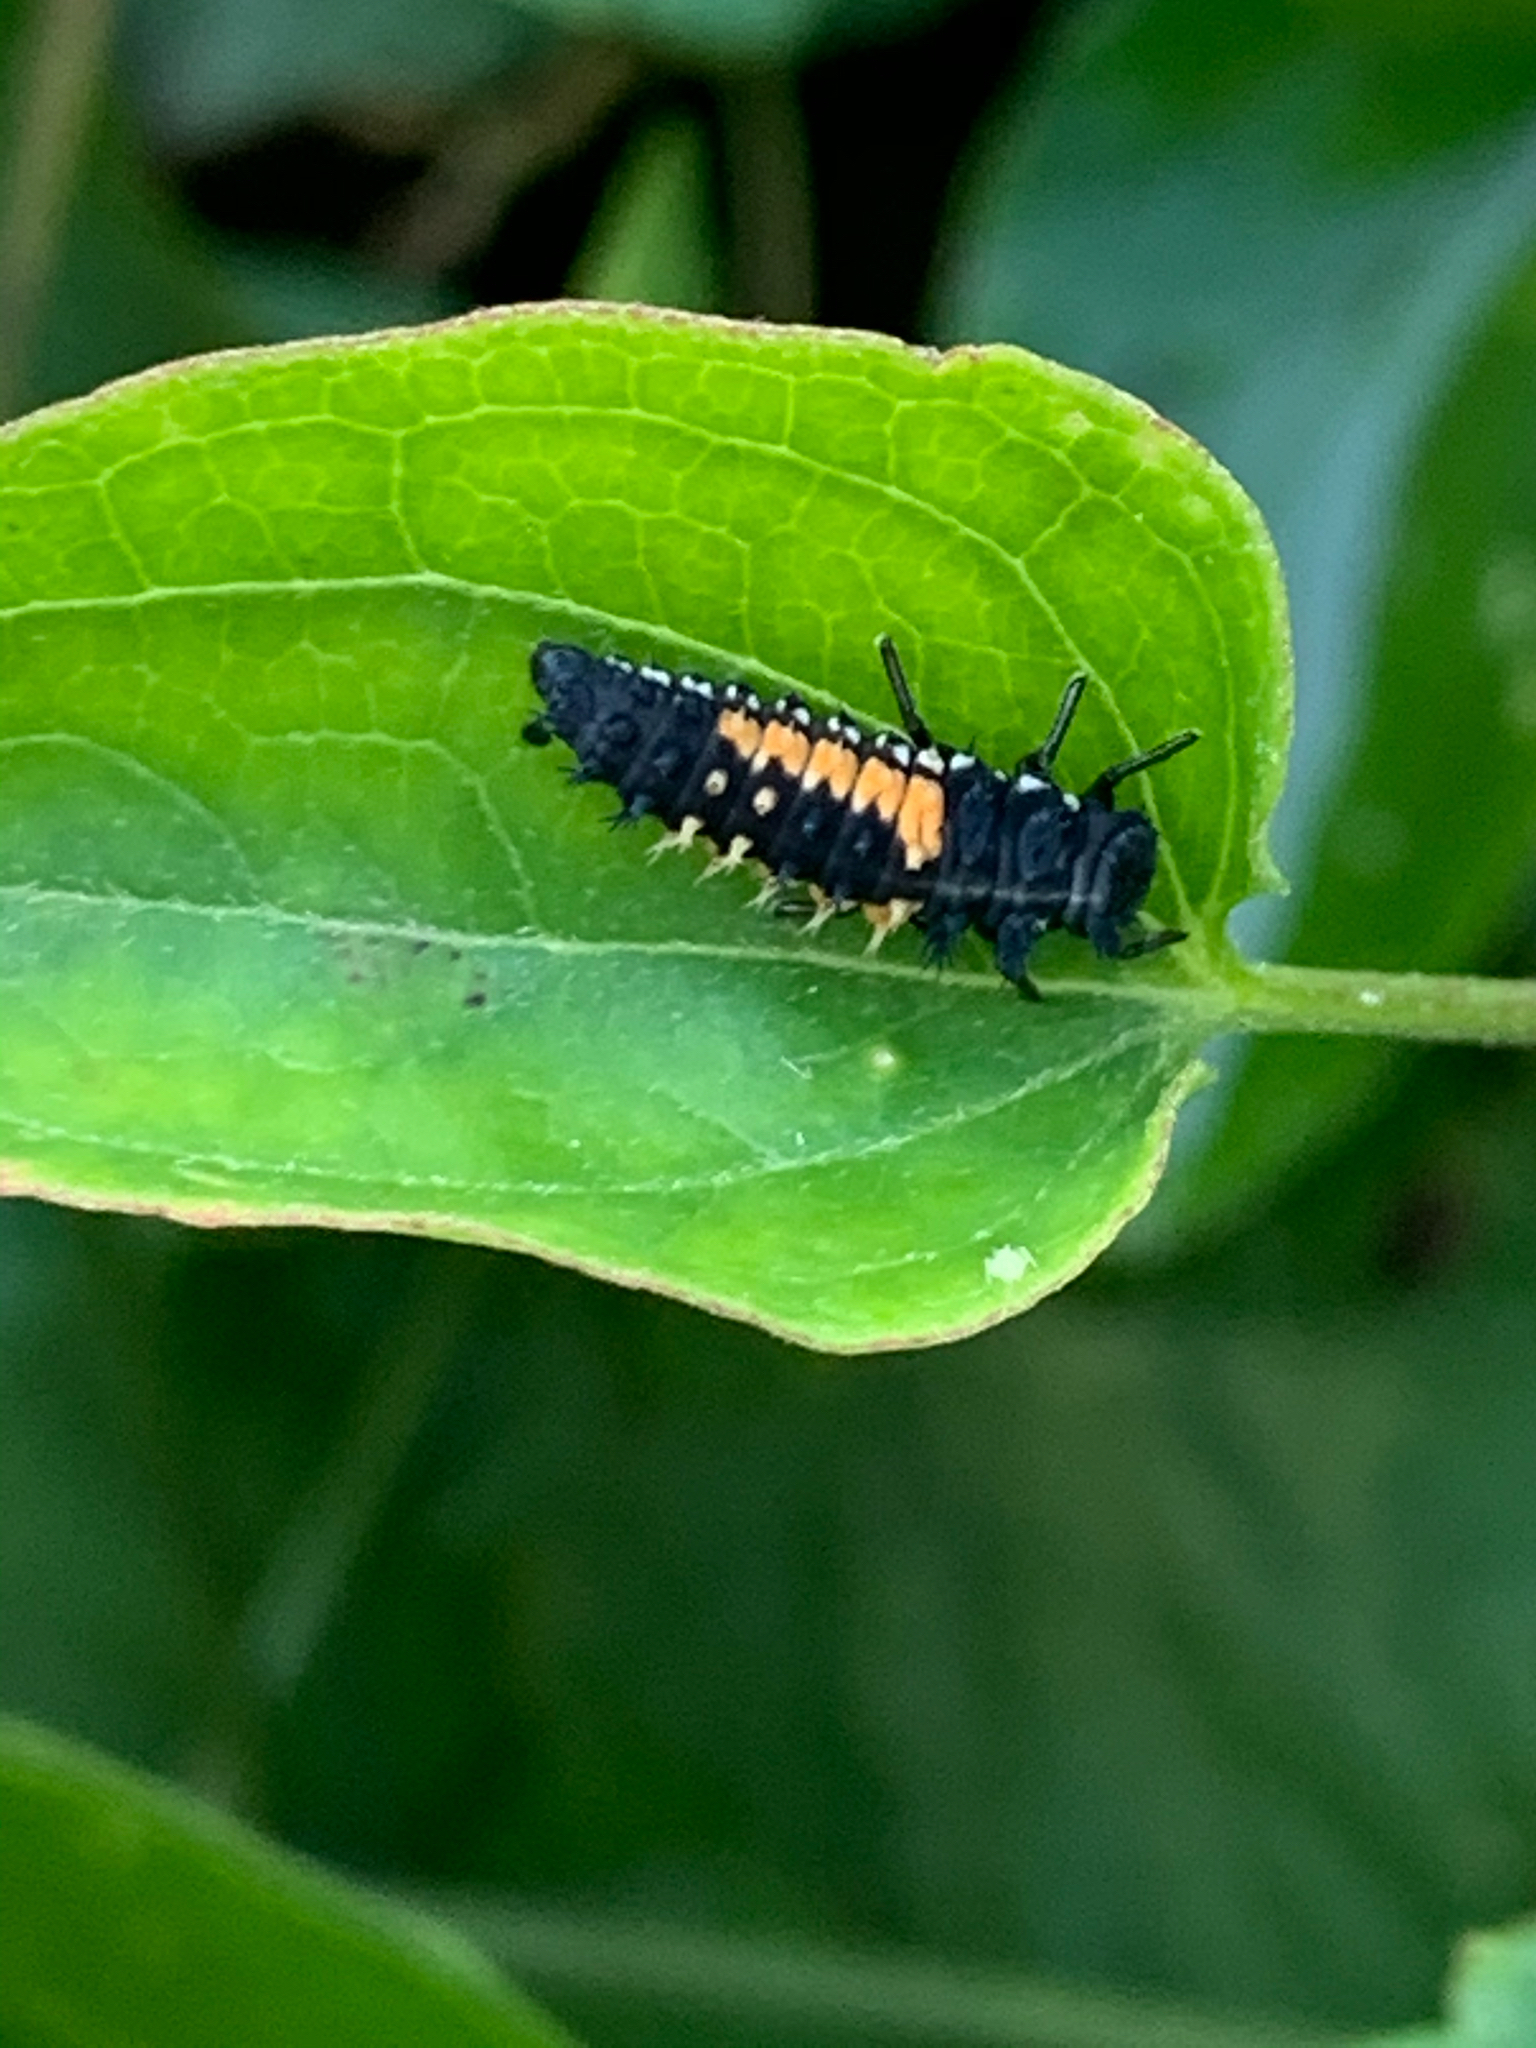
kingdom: Animalia
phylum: Arthropoda
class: Insecta
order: Coleoptera
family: Coccinellidae
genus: Harmonia
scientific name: Harmonia axyridis
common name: Harlequin ladybird
